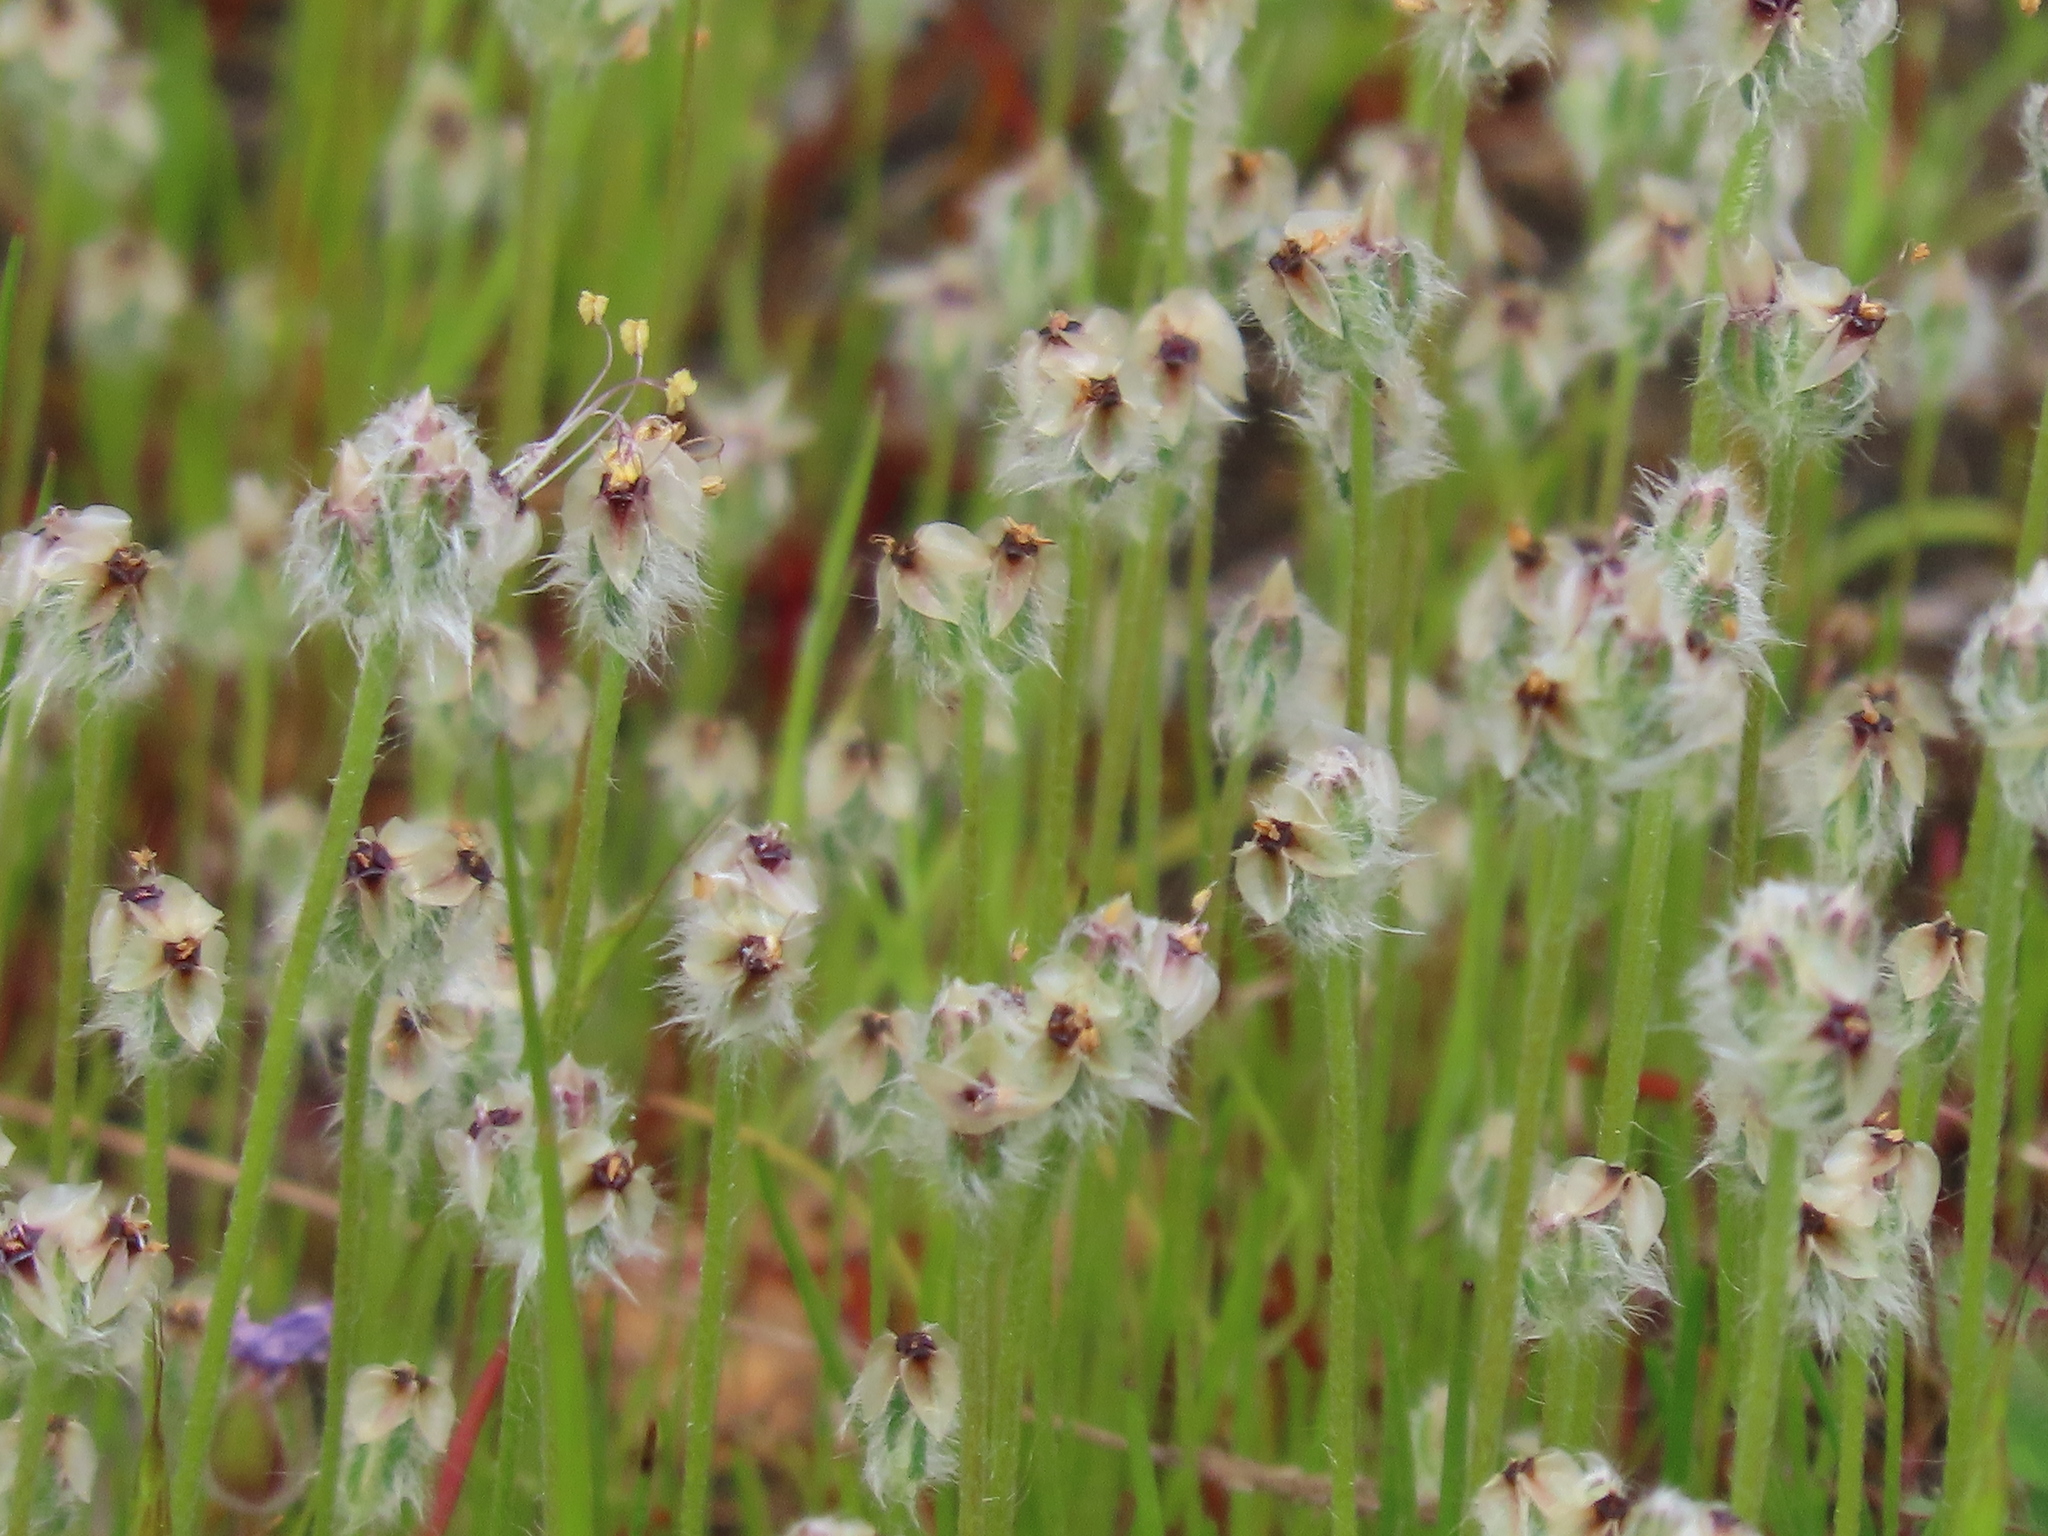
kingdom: Plantae
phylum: Tracheophyta
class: Magnoliopsida
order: Lamiales
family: Plantaginaceae
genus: Plantago
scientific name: Plantago erecta
